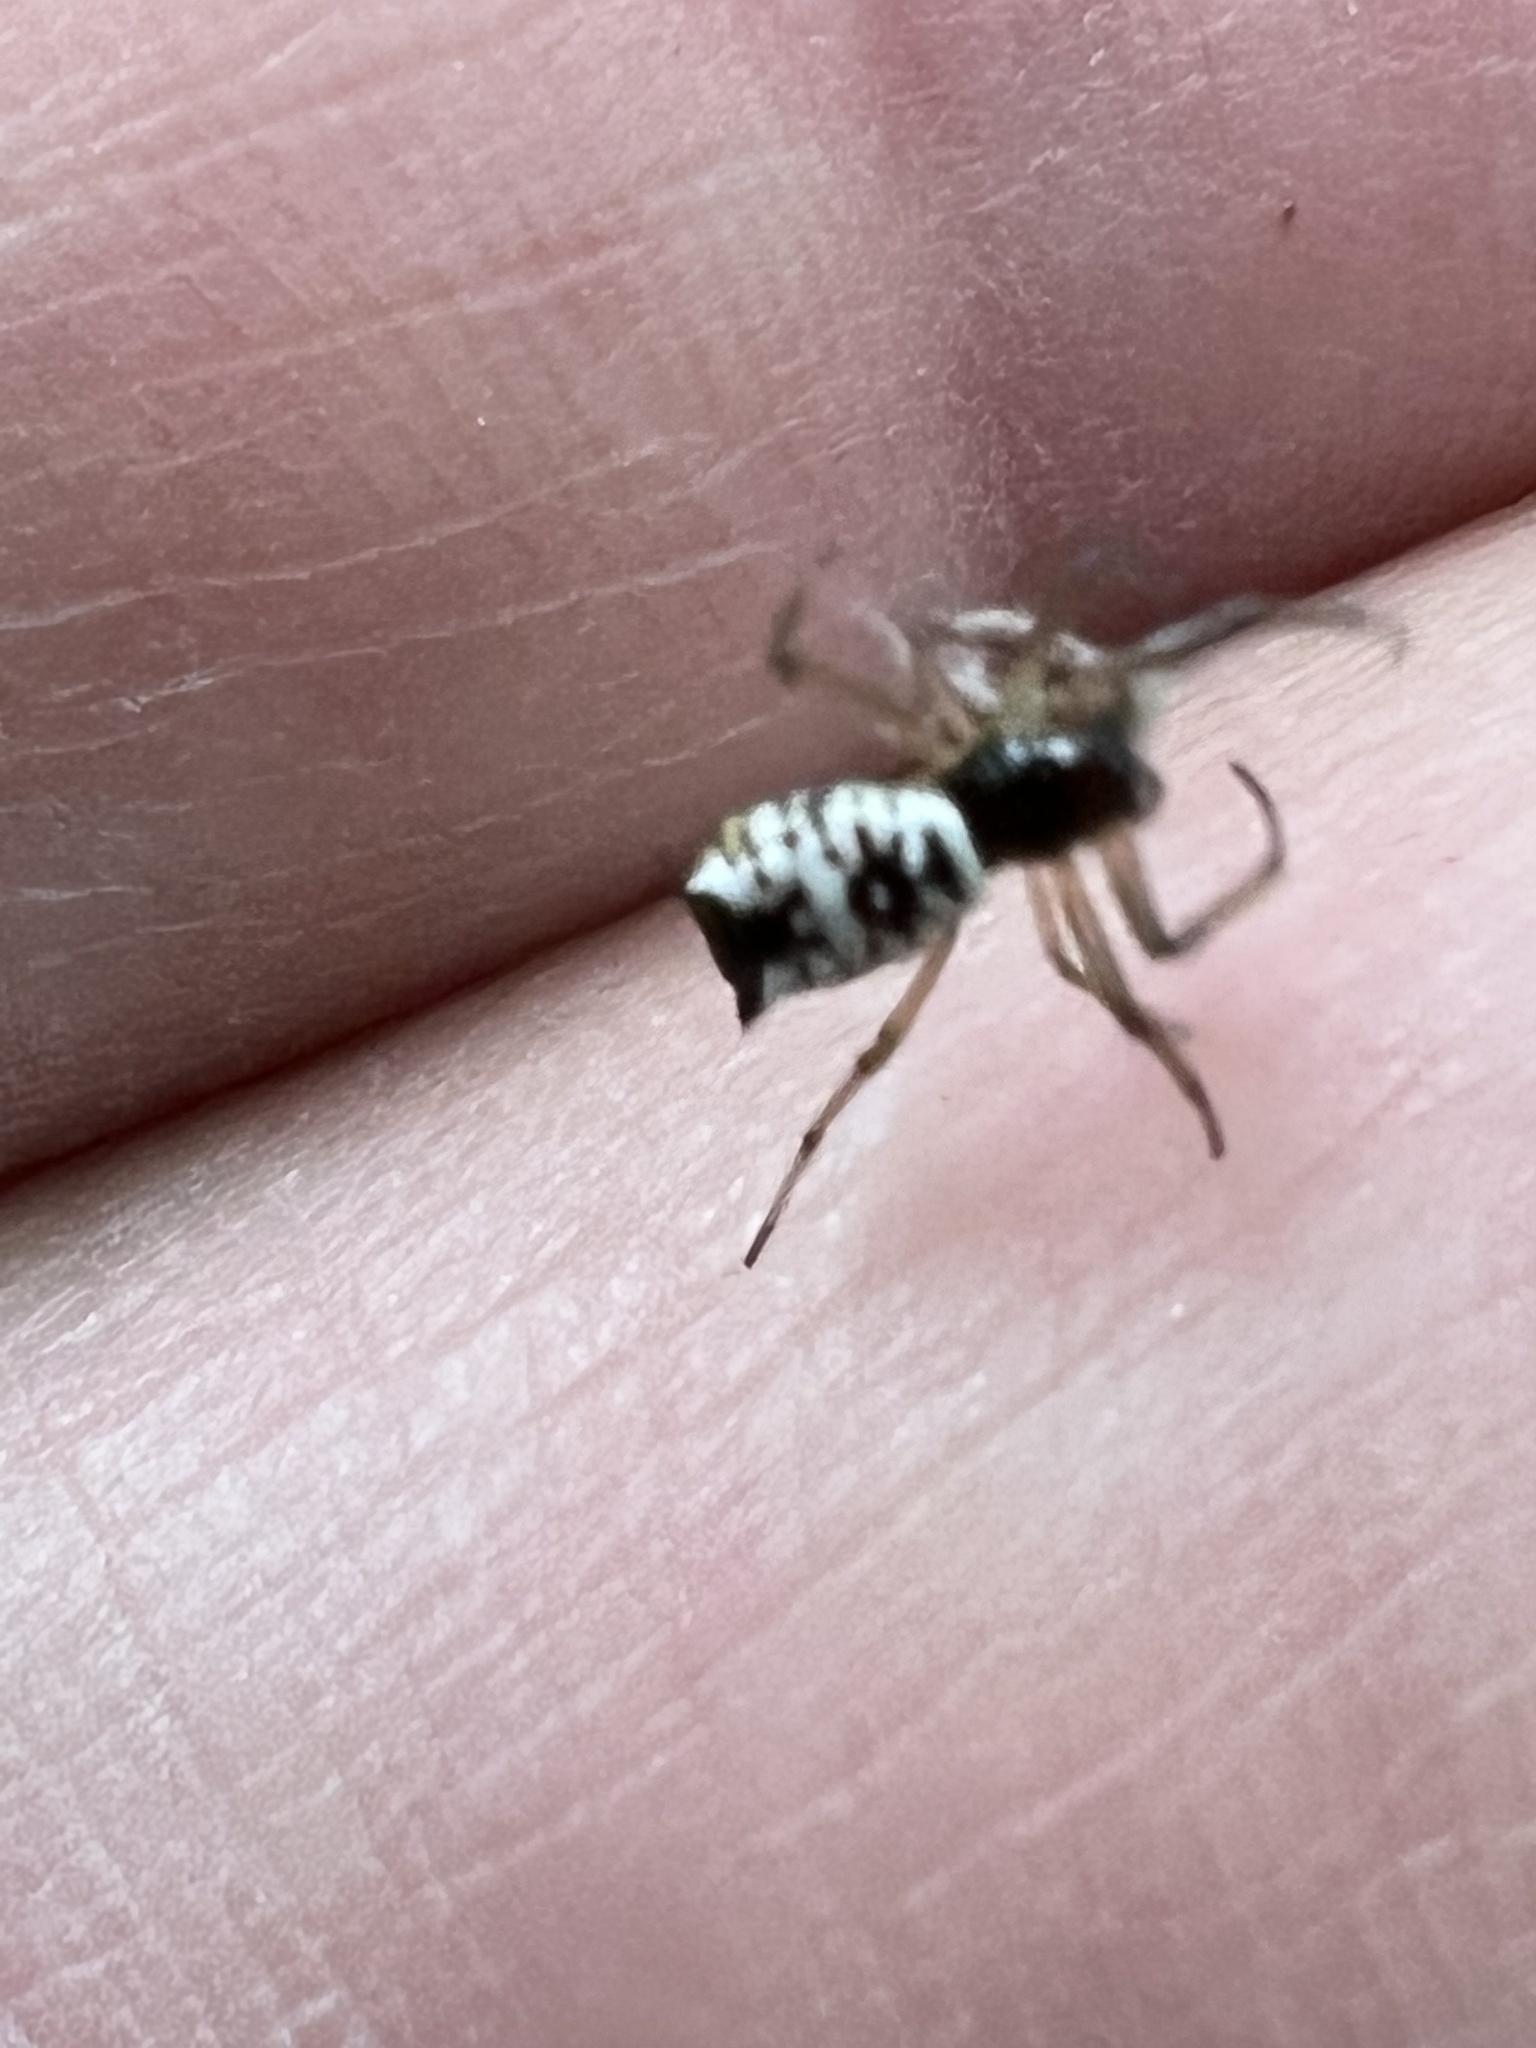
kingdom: Animalia
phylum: Arthropoda
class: Arachnida
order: Araneae
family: Araneidae
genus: Micrathena
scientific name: Micrathena mitrata
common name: Orb weavers
